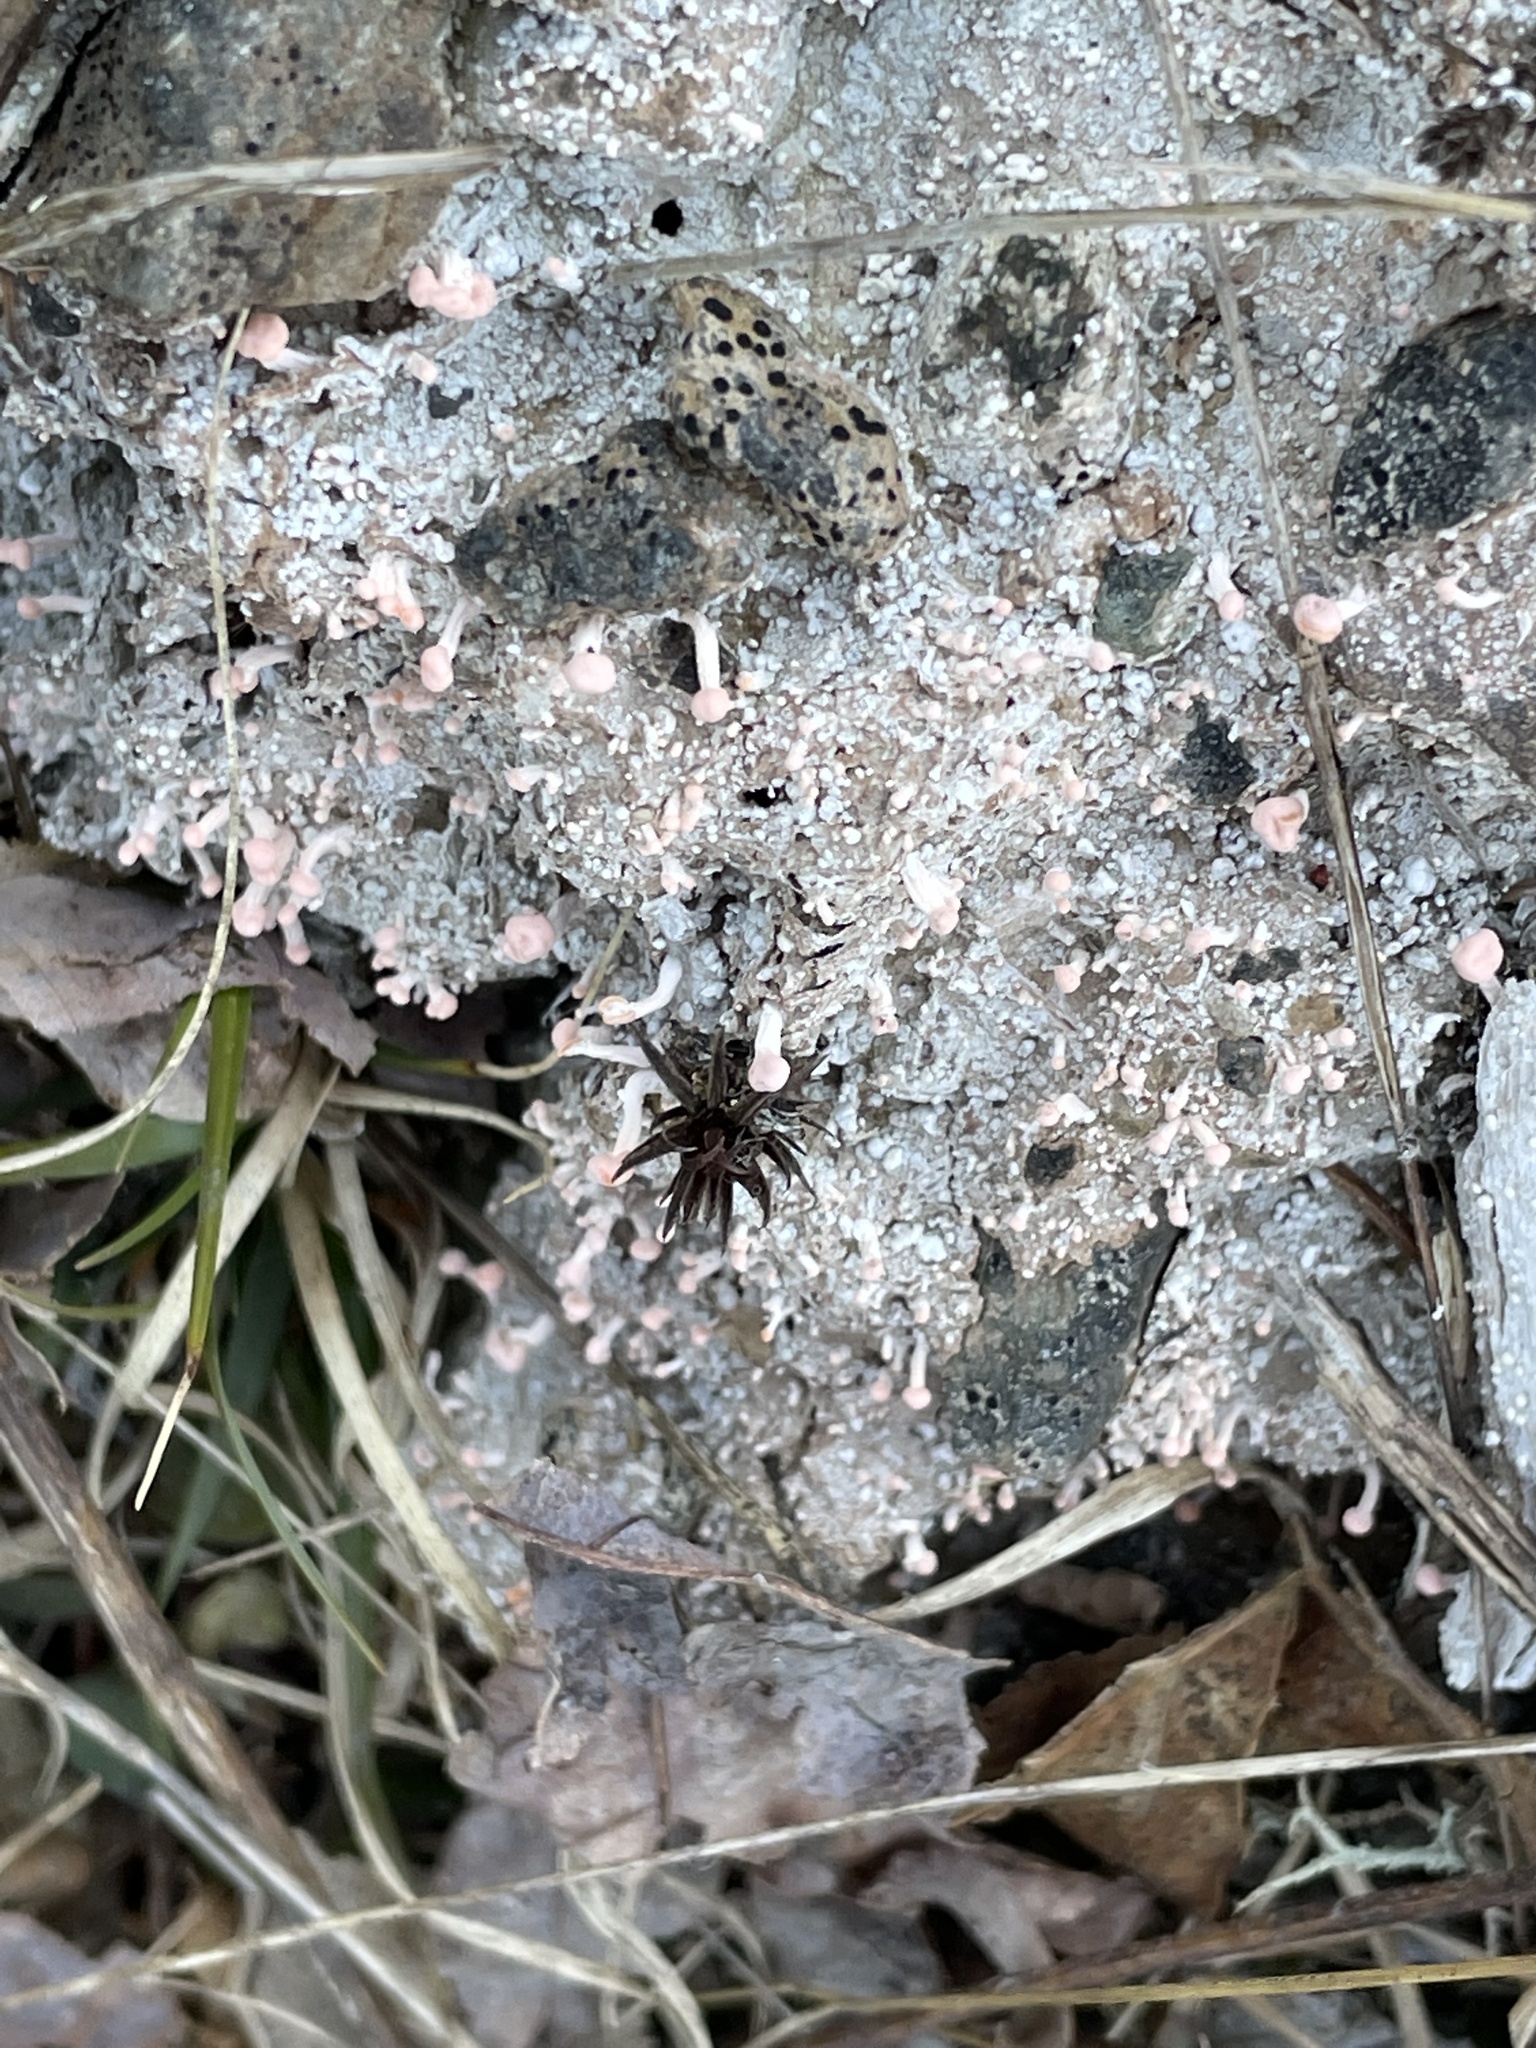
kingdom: Fungi
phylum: Ascomycota
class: Lecanoromycetes
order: Pertusariales
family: Icmadophilaceae
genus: Dibaeis
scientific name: Dibaeis baeomyces
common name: Pink earth lichen
